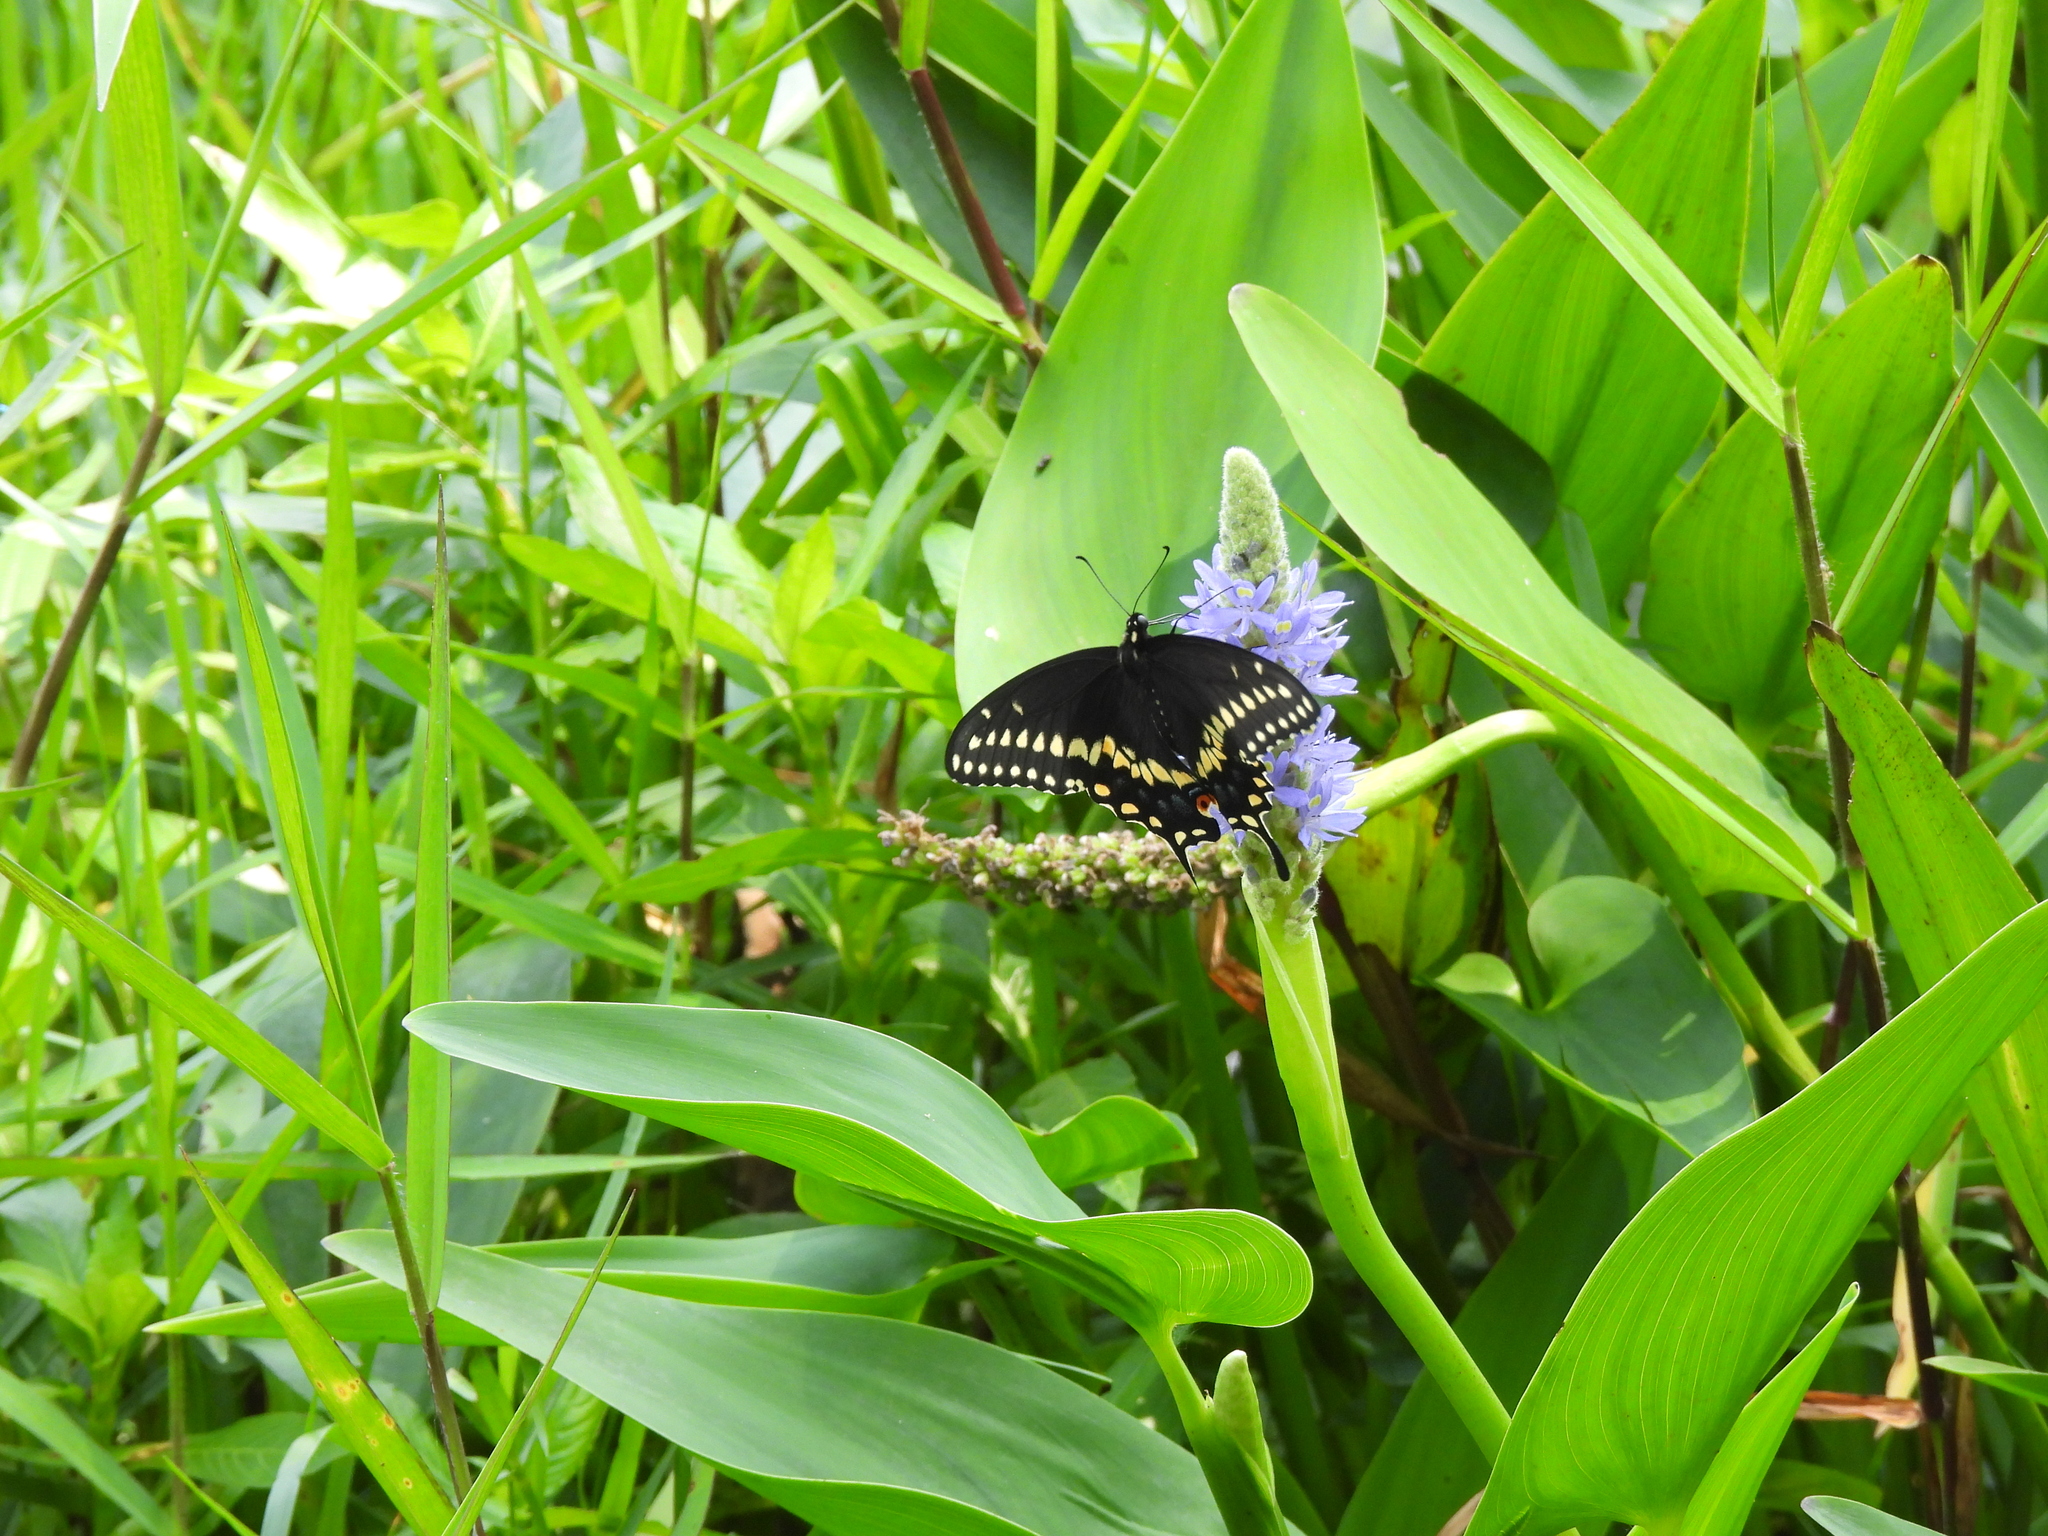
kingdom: Animalia
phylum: Arthropoda
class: Insecta
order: Lepidoptera
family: Papilionidae
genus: Papilio
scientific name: Papilio polyxenes
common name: Black swallowtail
